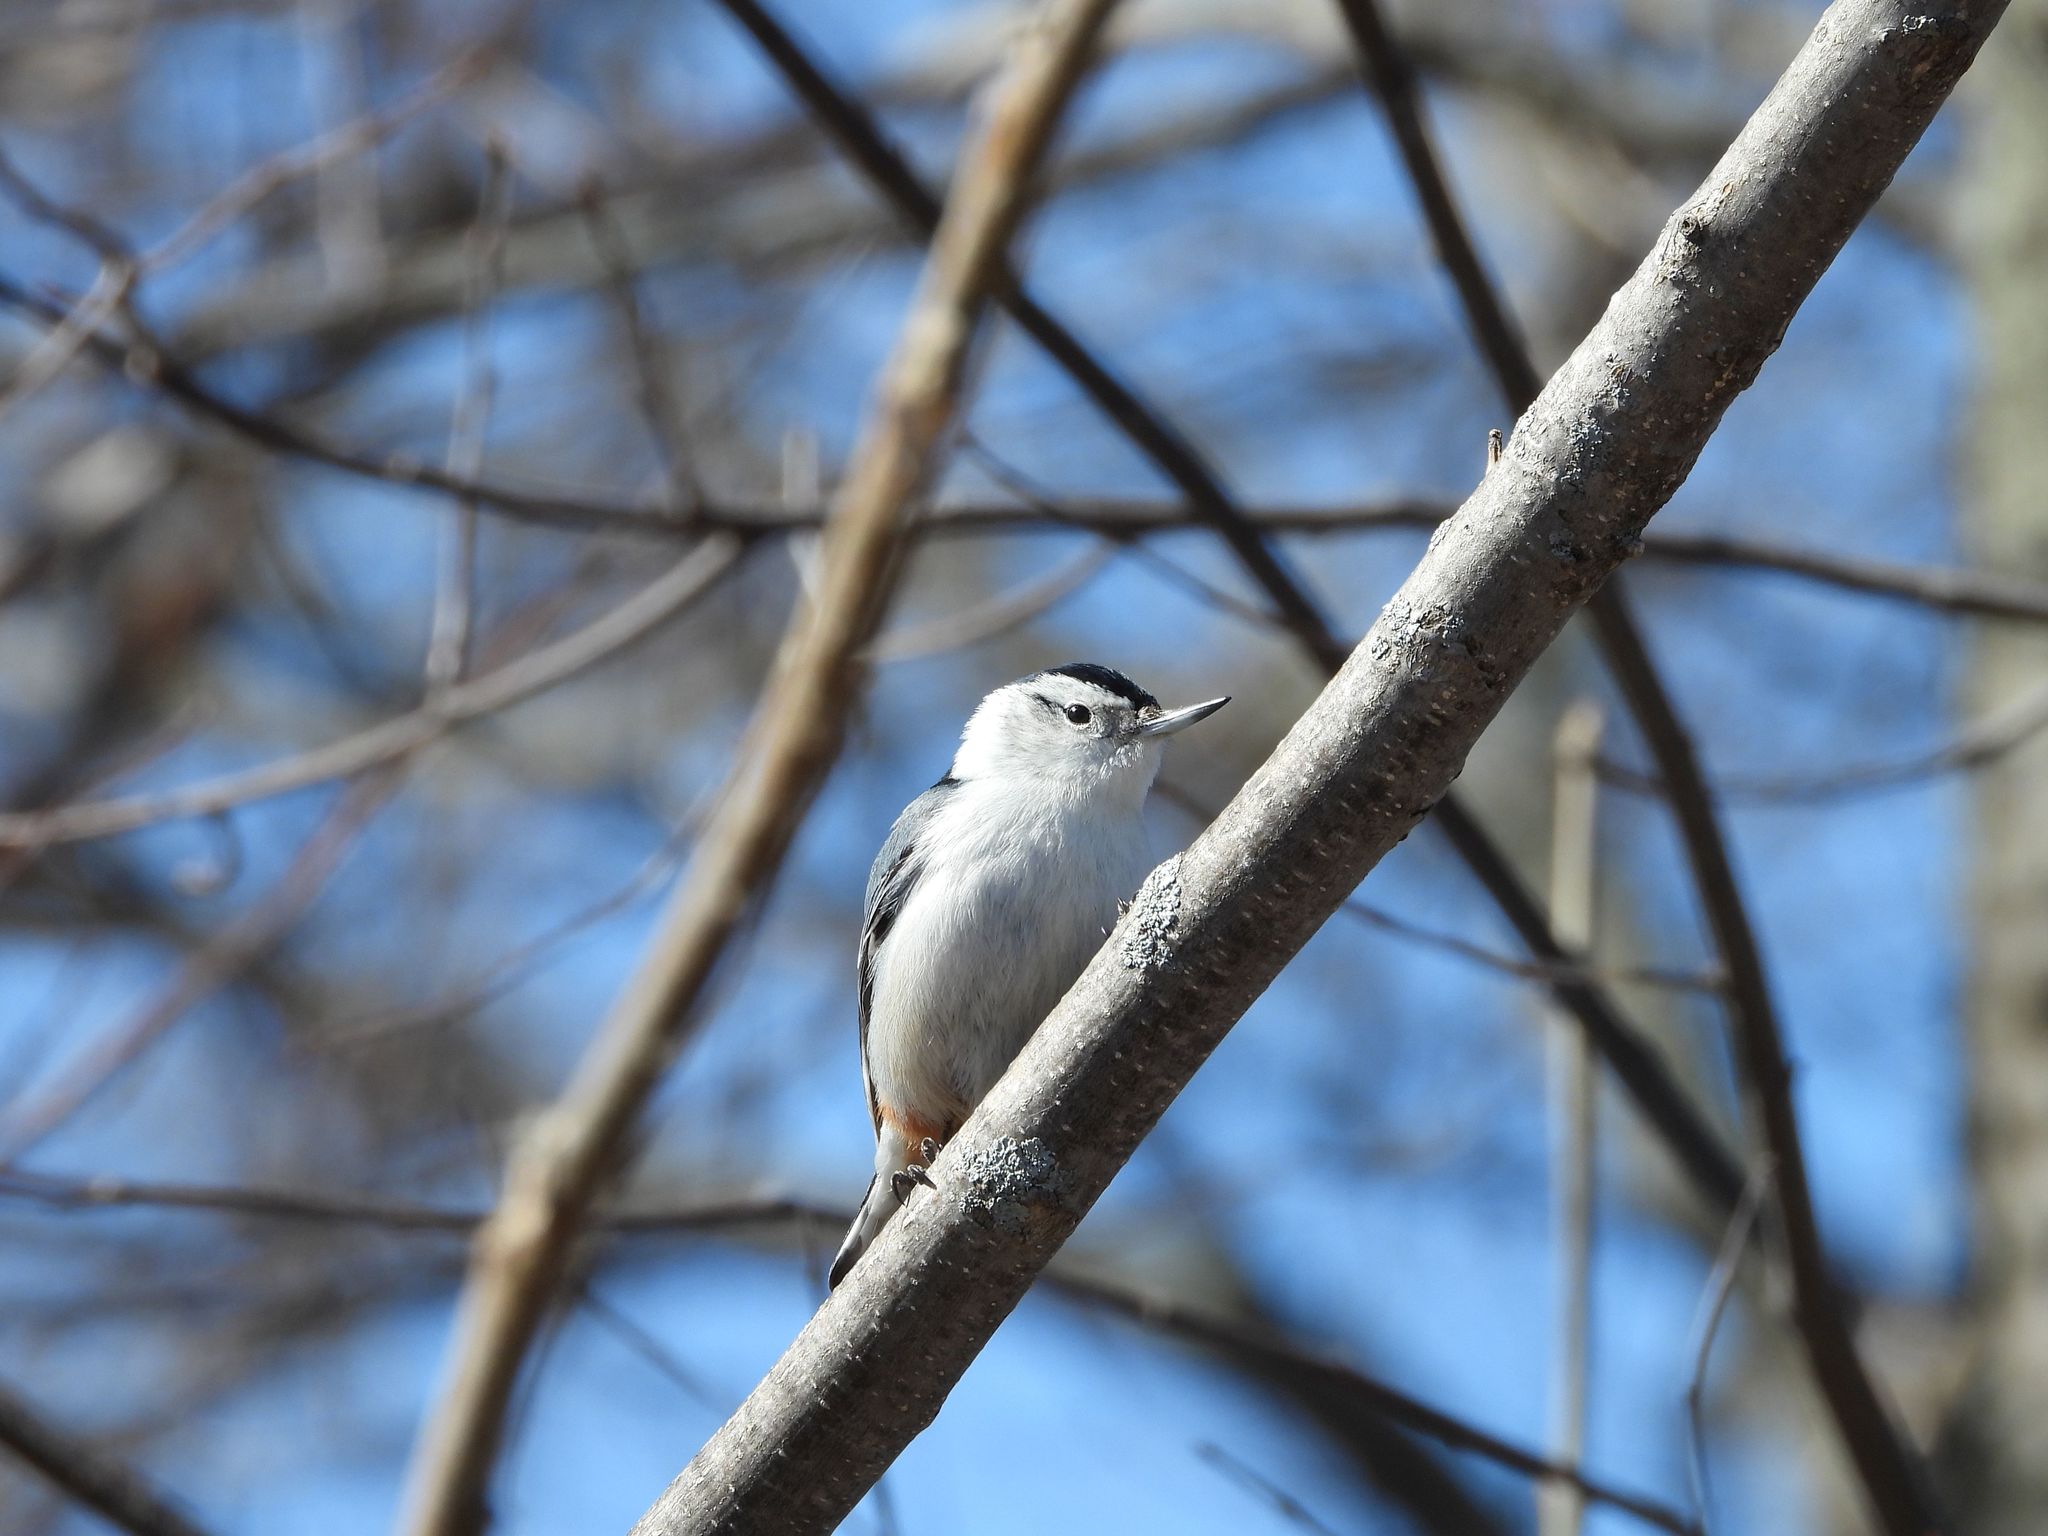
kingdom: Animalia
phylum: Chordata
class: Aves
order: Passeriformes
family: Sittidae
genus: Sitta
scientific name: Sitta carolinensis
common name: White-breasted nuthatch
